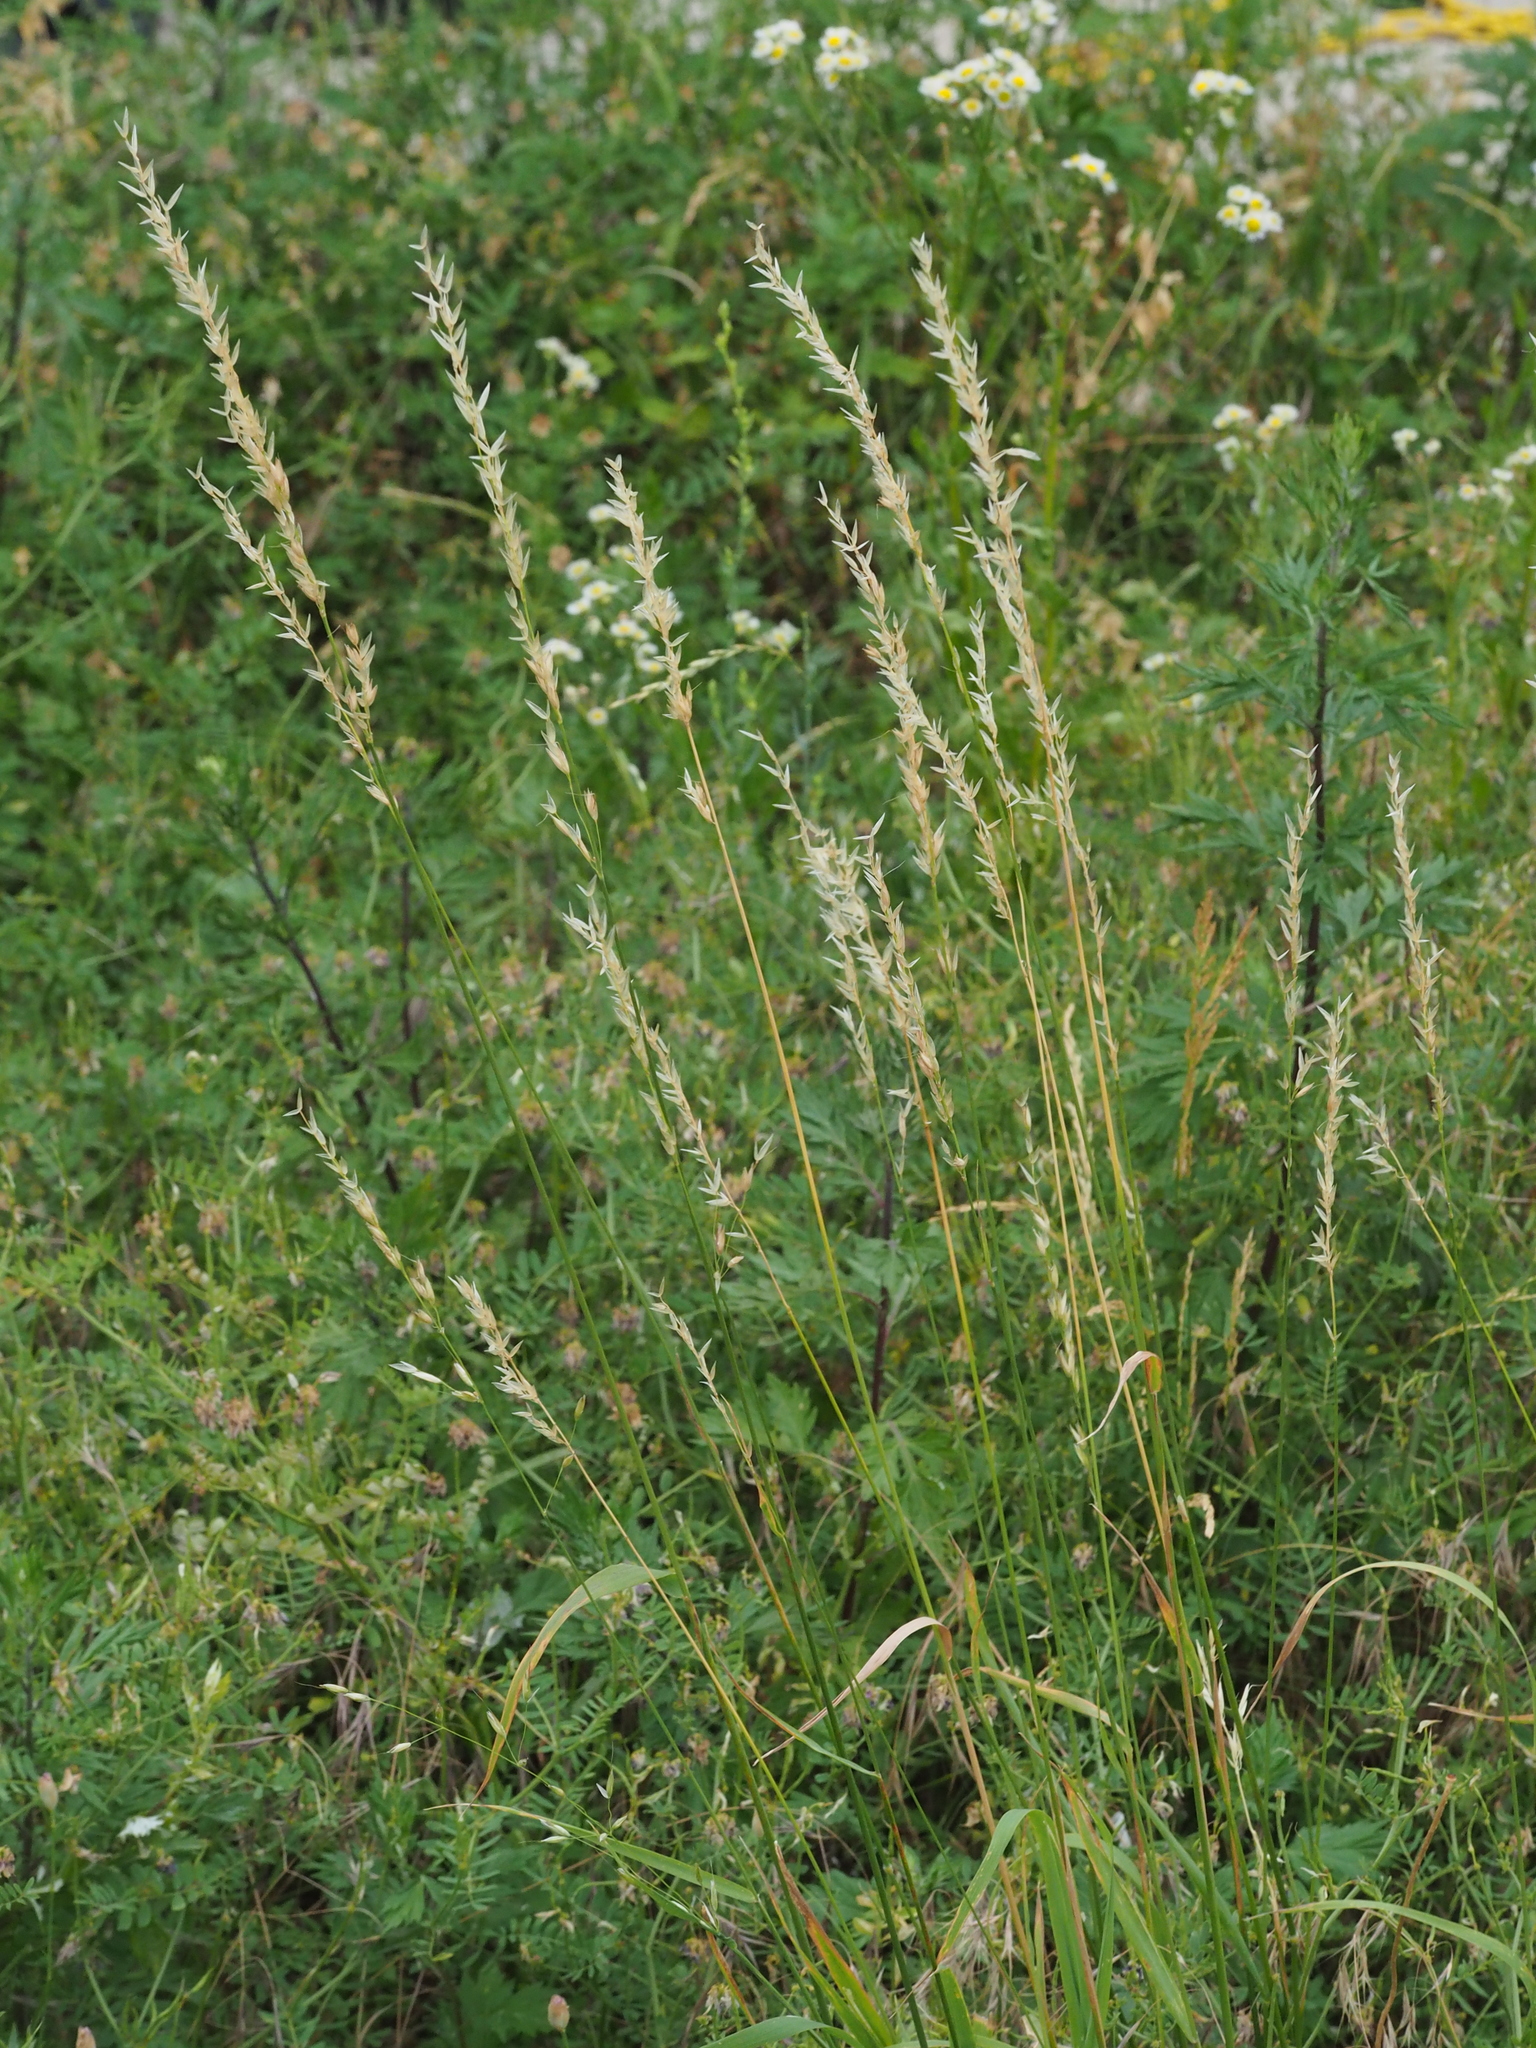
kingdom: Plantae
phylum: Tracheophyta
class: Liliopsida
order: Poales
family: Poaceae
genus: Arrhenatherum
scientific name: Arrhenatherum elatius
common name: Tall oatgrass
